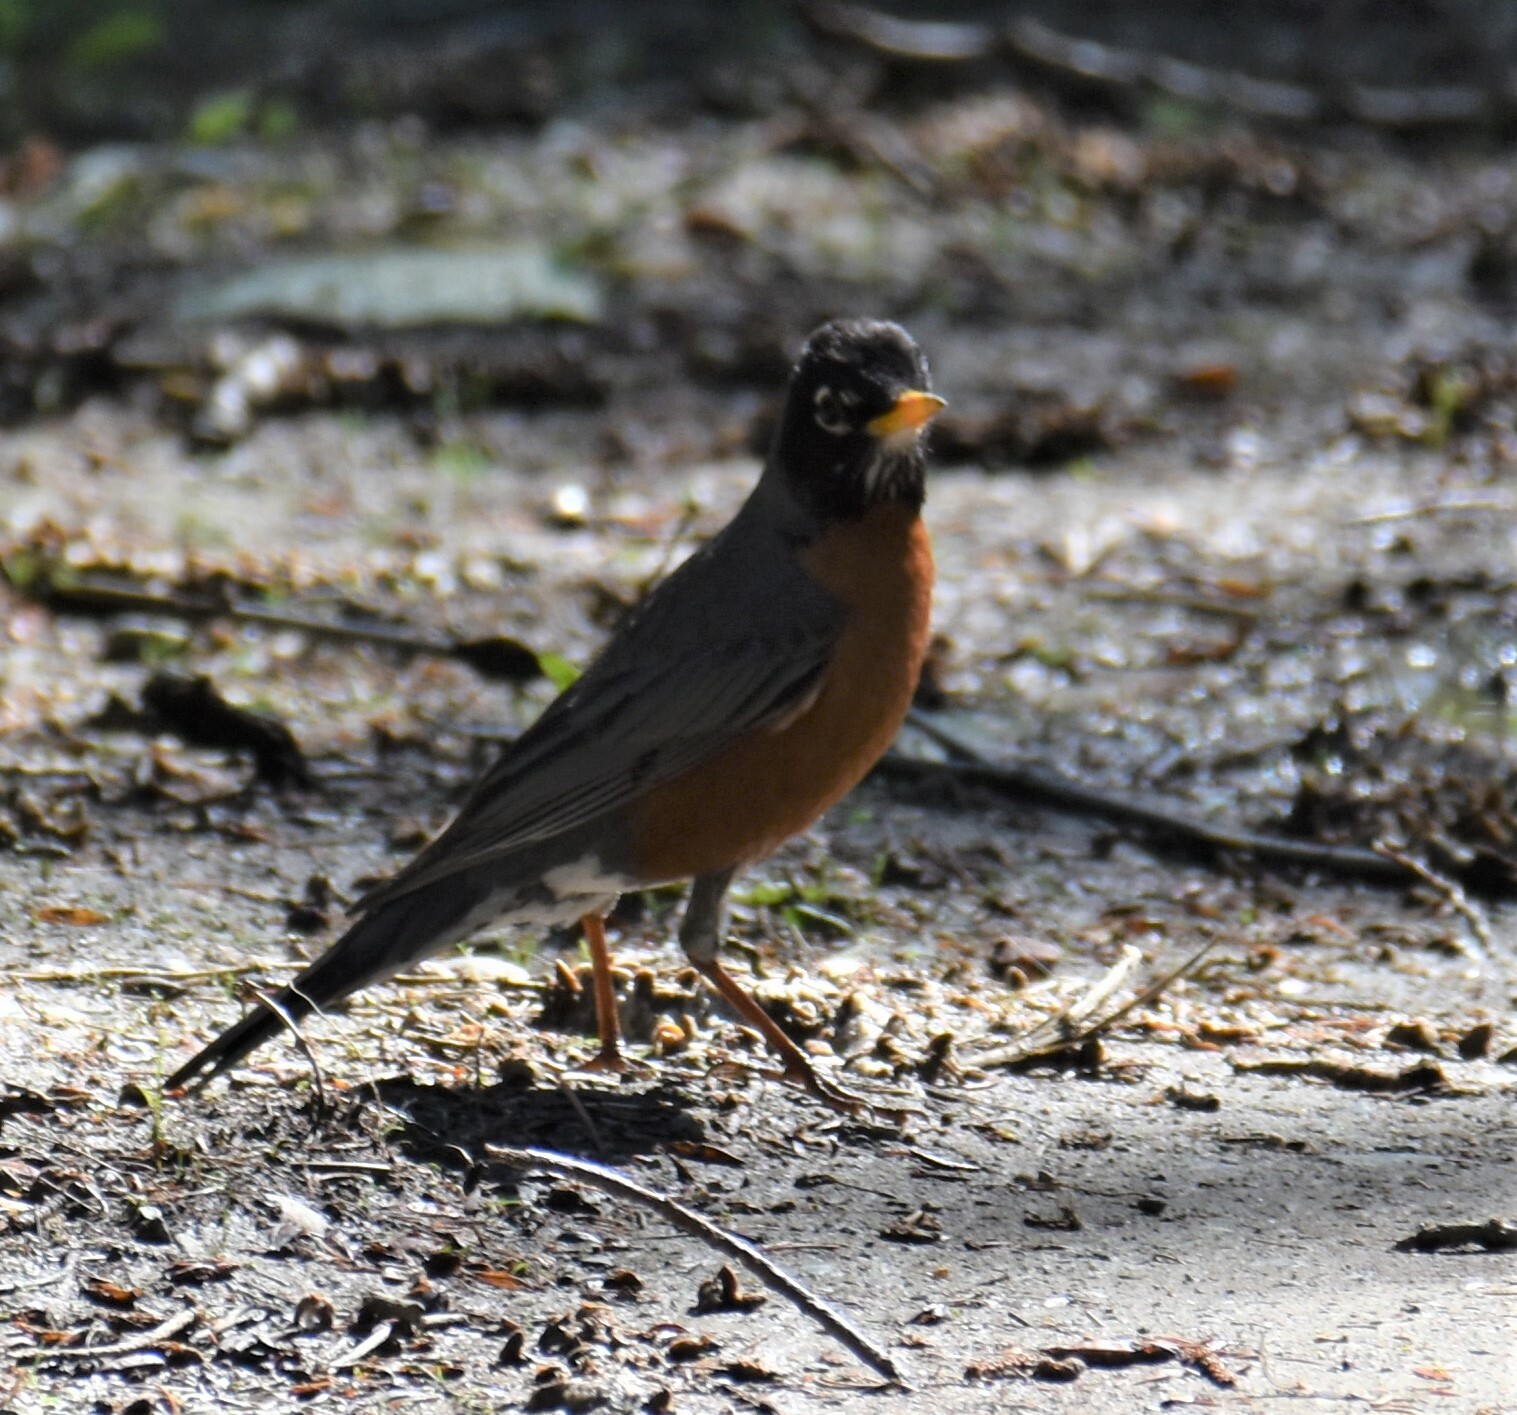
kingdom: Animalia
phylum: Chordata
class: Aves
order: Passeriformes
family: Turdidae
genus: Turdus
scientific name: Turdus migratorius
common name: American robin
